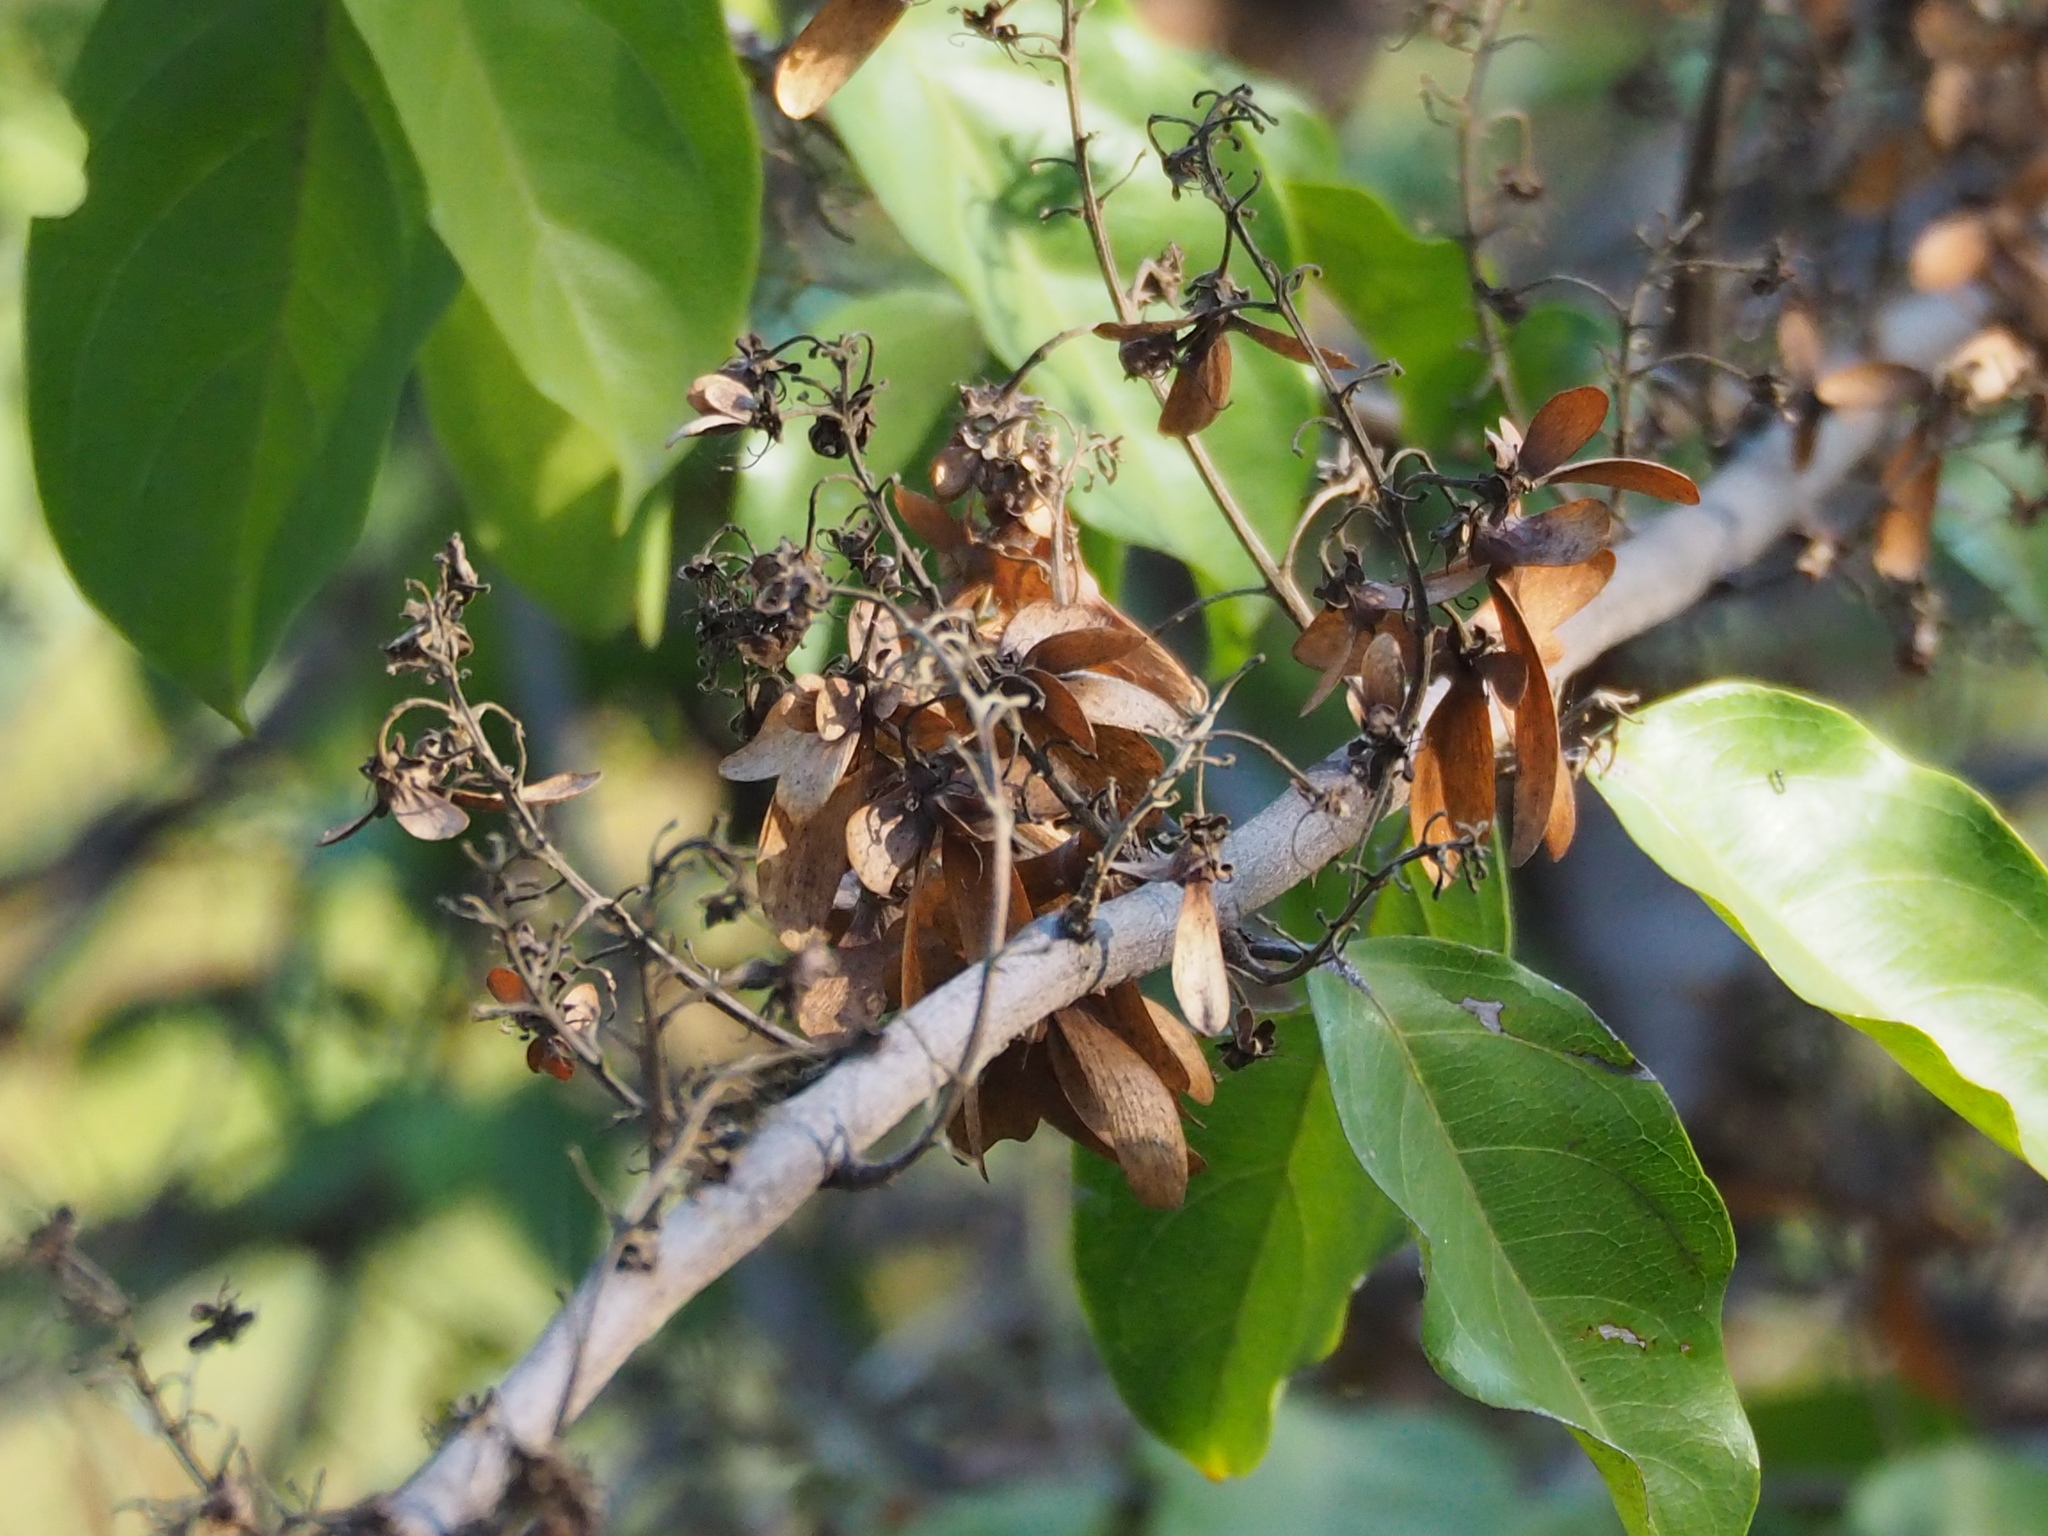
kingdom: Plantae
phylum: Tracheophyta
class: Magnoliopsida
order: Malpighiales
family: Malpighiaceae
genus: Hiptage
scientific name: Hiptage benghalensis
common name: Hiptage
